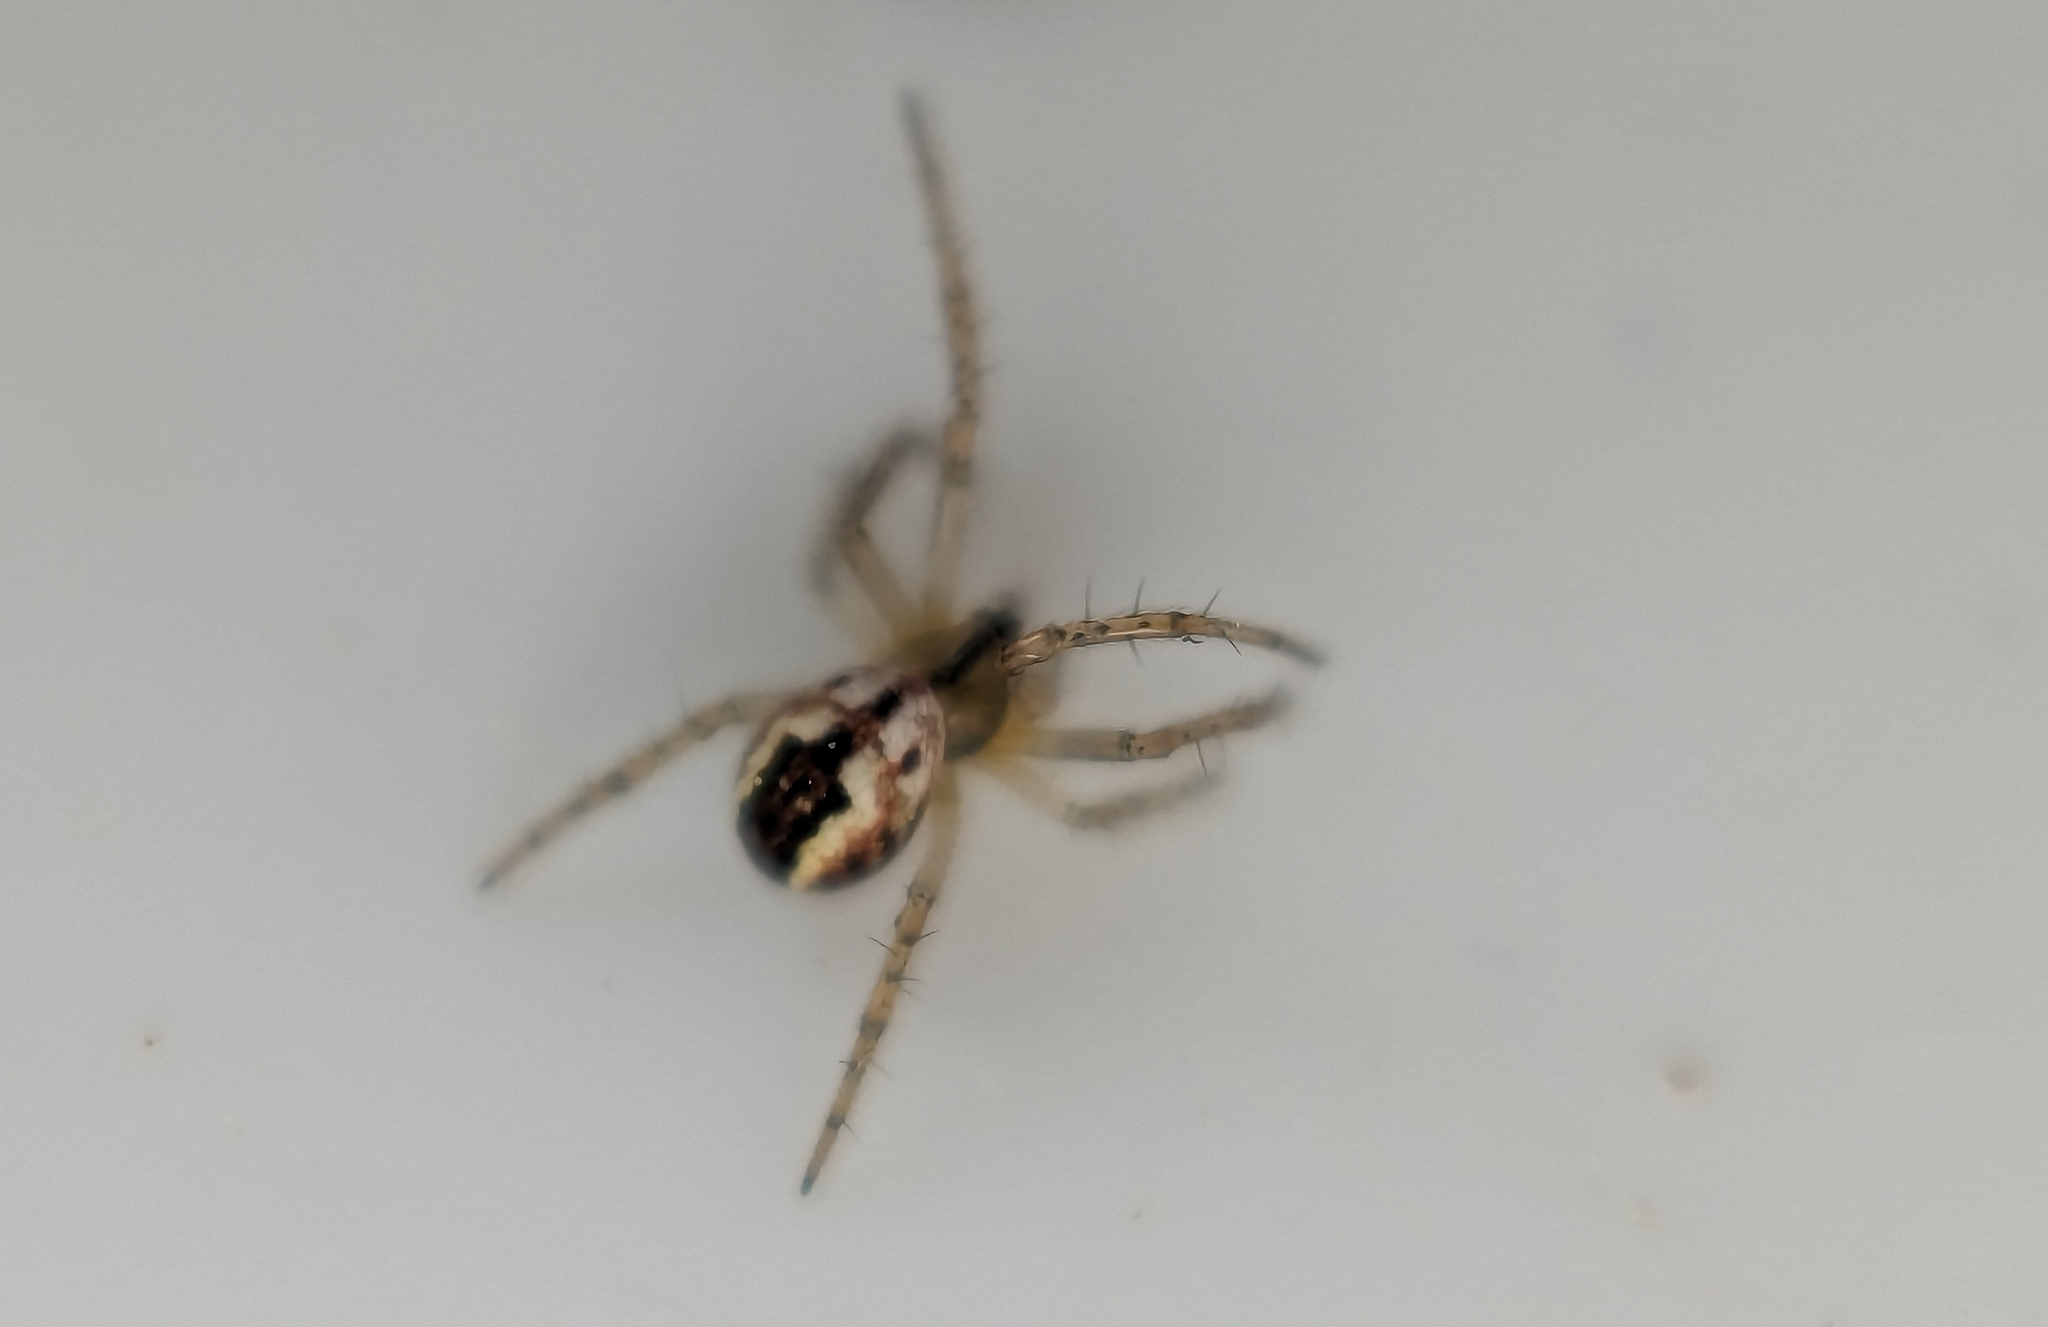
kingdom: Animalia
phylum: Arthropoda
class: Arachnida
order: Araneae
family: Araneidae
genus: Mangora
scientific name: Mangora acalypha
